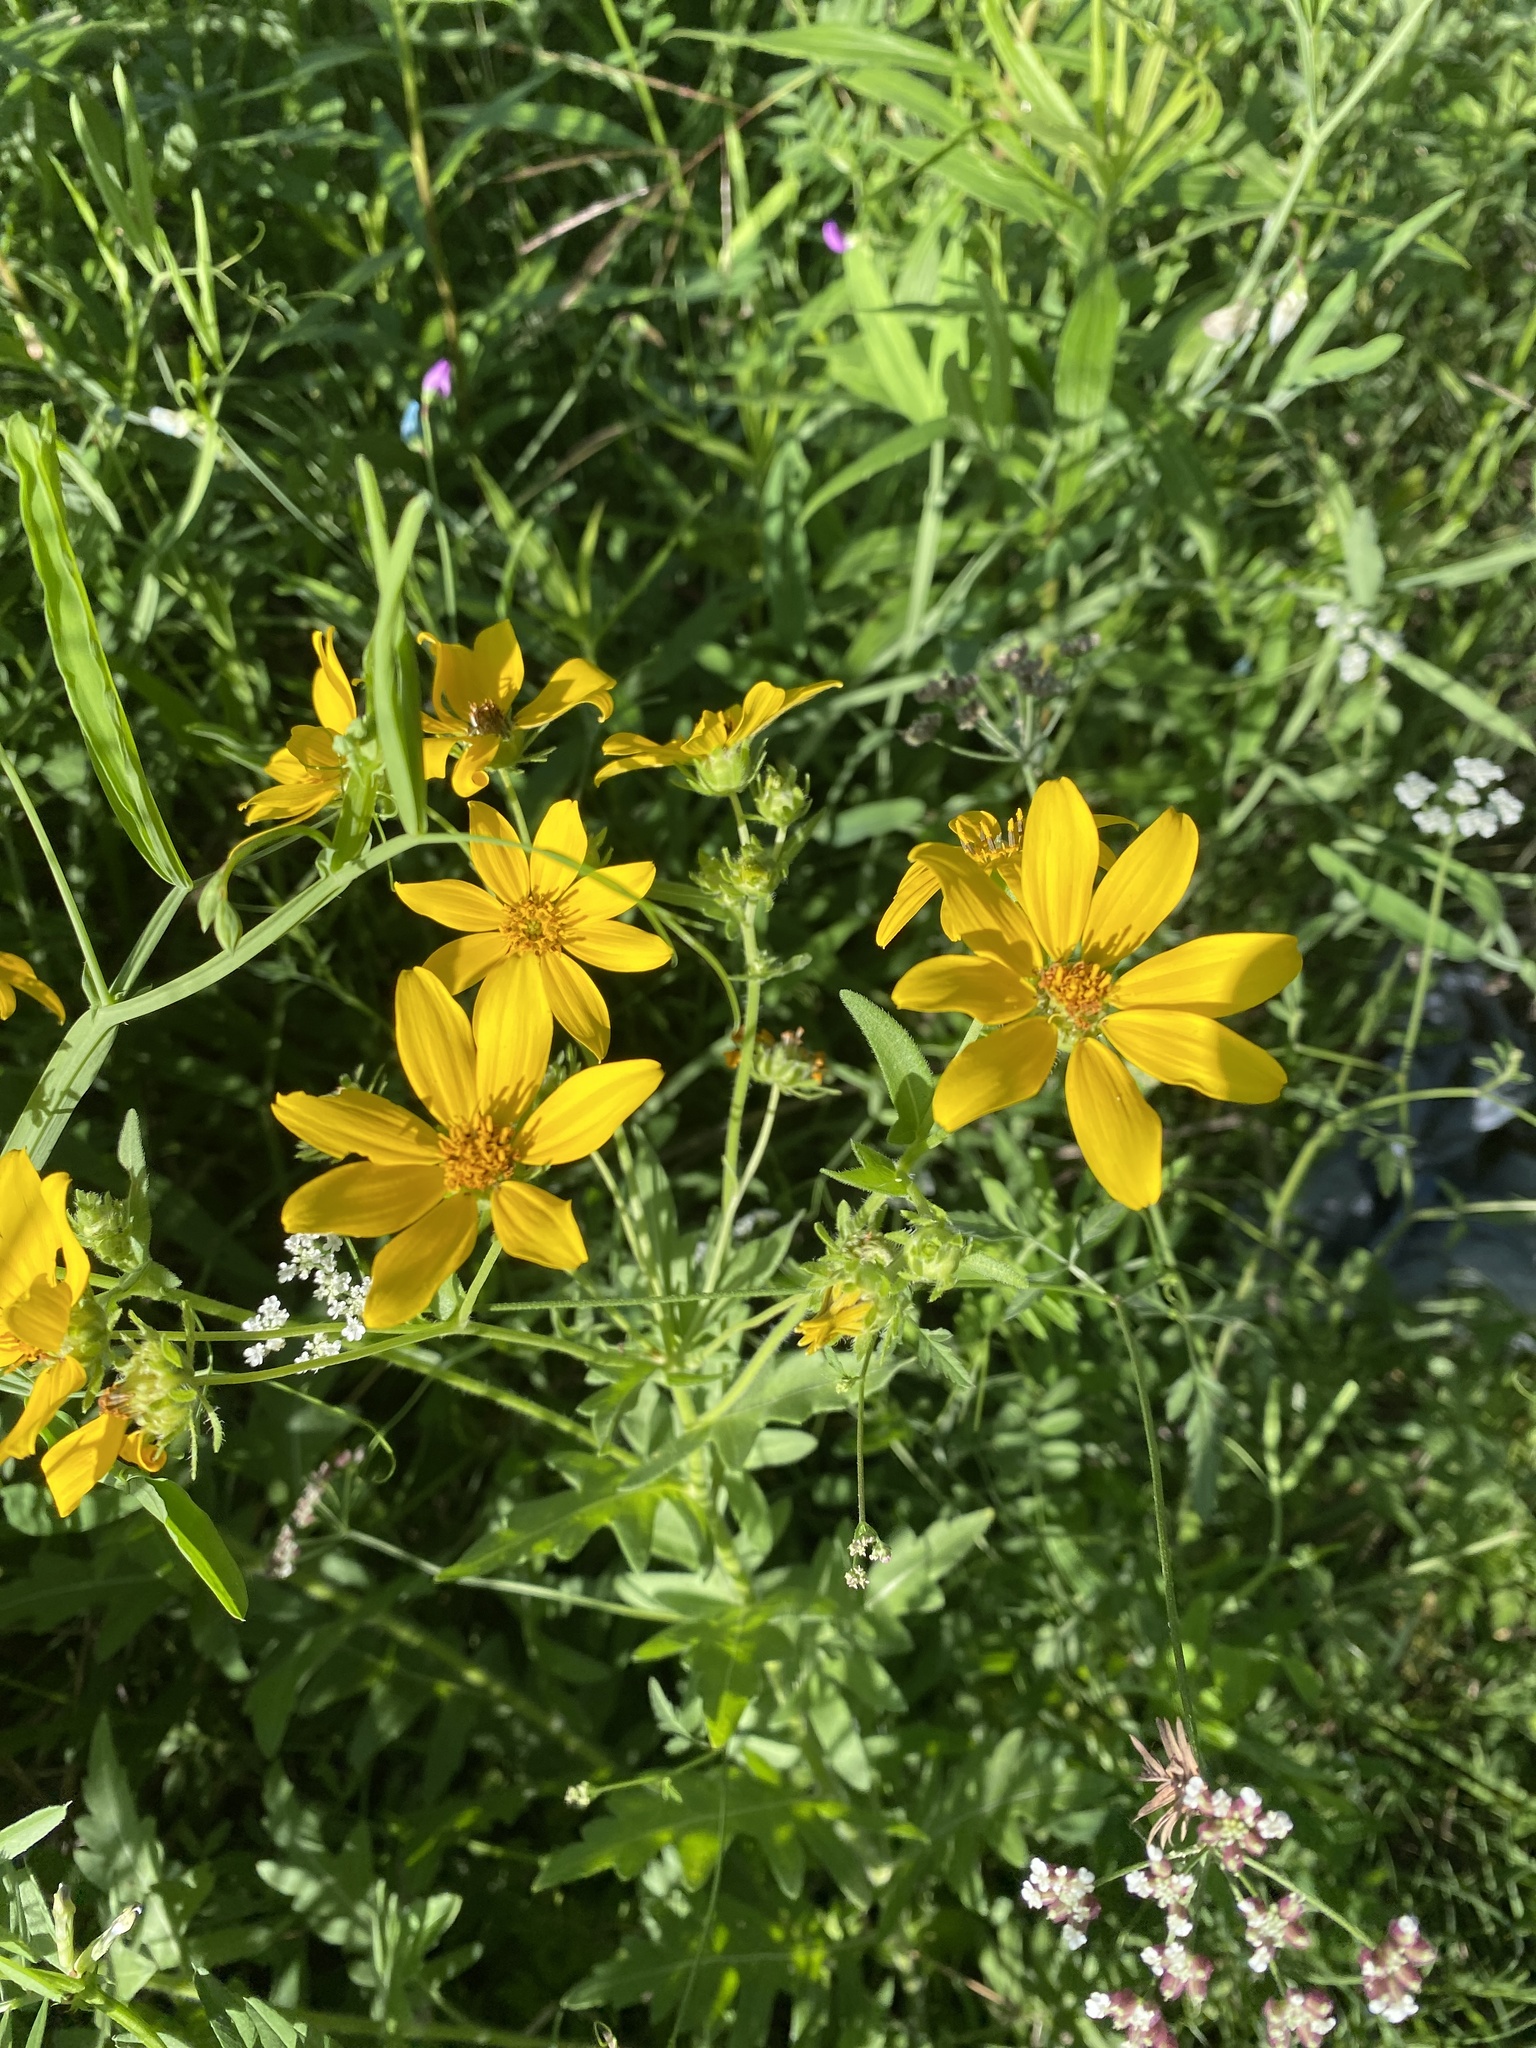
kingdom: Plantae
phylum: Tracheophyta
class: Magnoliopsida
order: Asterales
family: Asteraceae
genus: Engelmannia
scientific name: Engelmannia peristenia
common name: Engelmann's daisy
